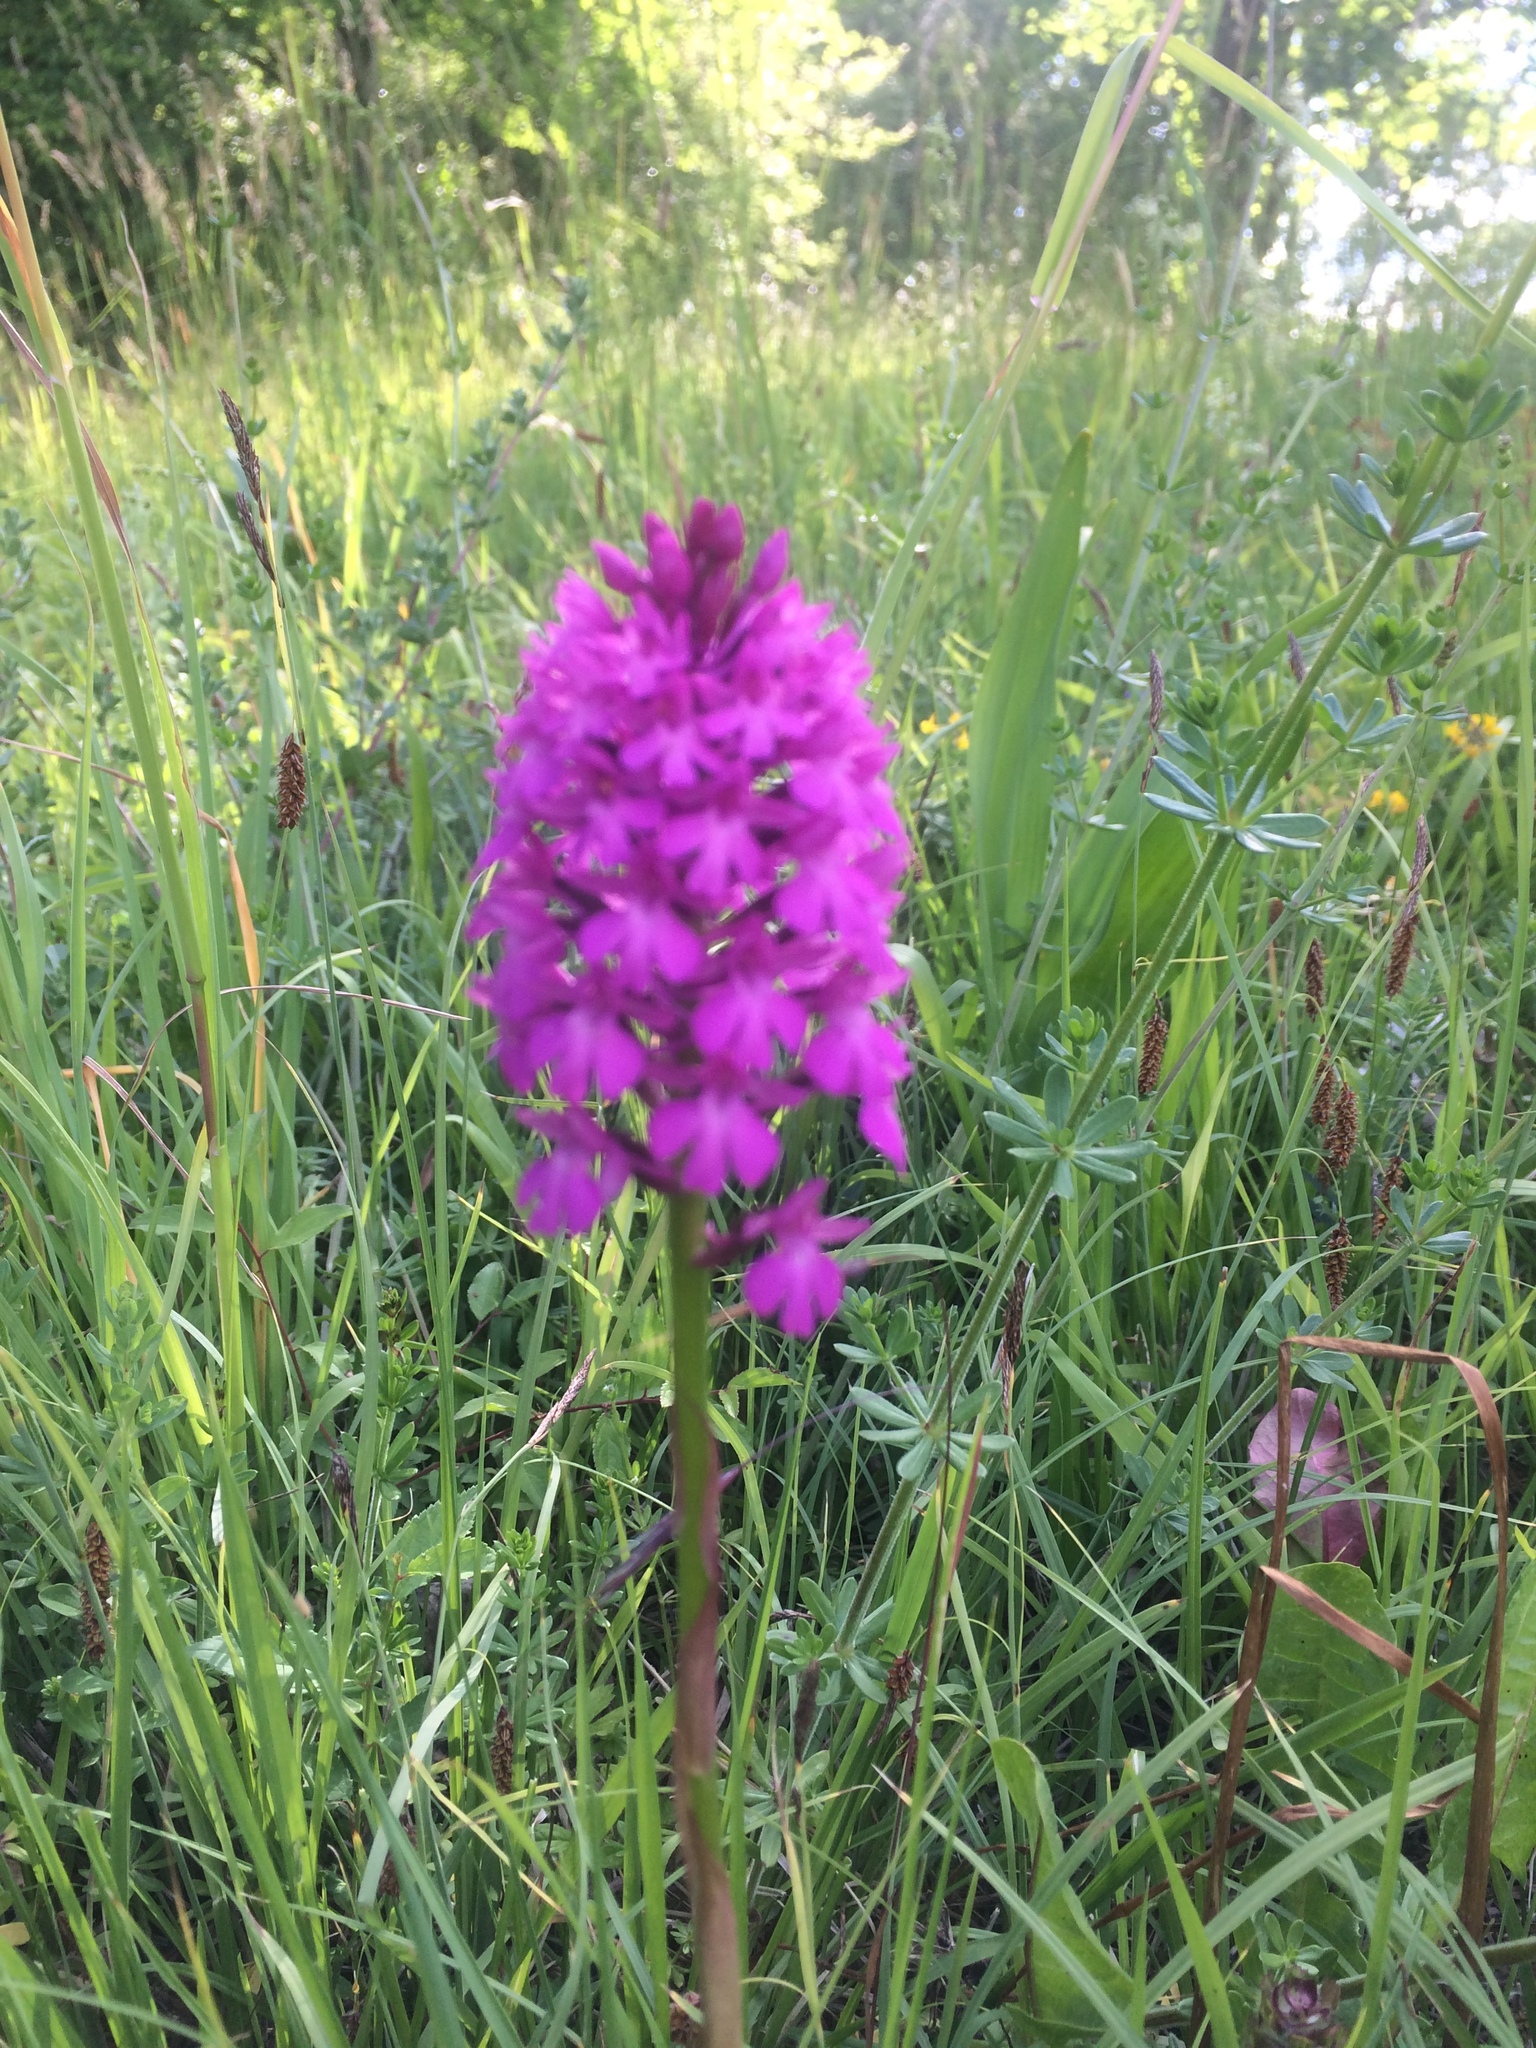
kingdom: Plantae
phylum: Tracheophyta
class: Liliopsida
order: Asparagales
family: Orchidaceae
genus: Anacamptis
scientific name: Anacamptis pyramidalis
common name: Pyramidal orchid
